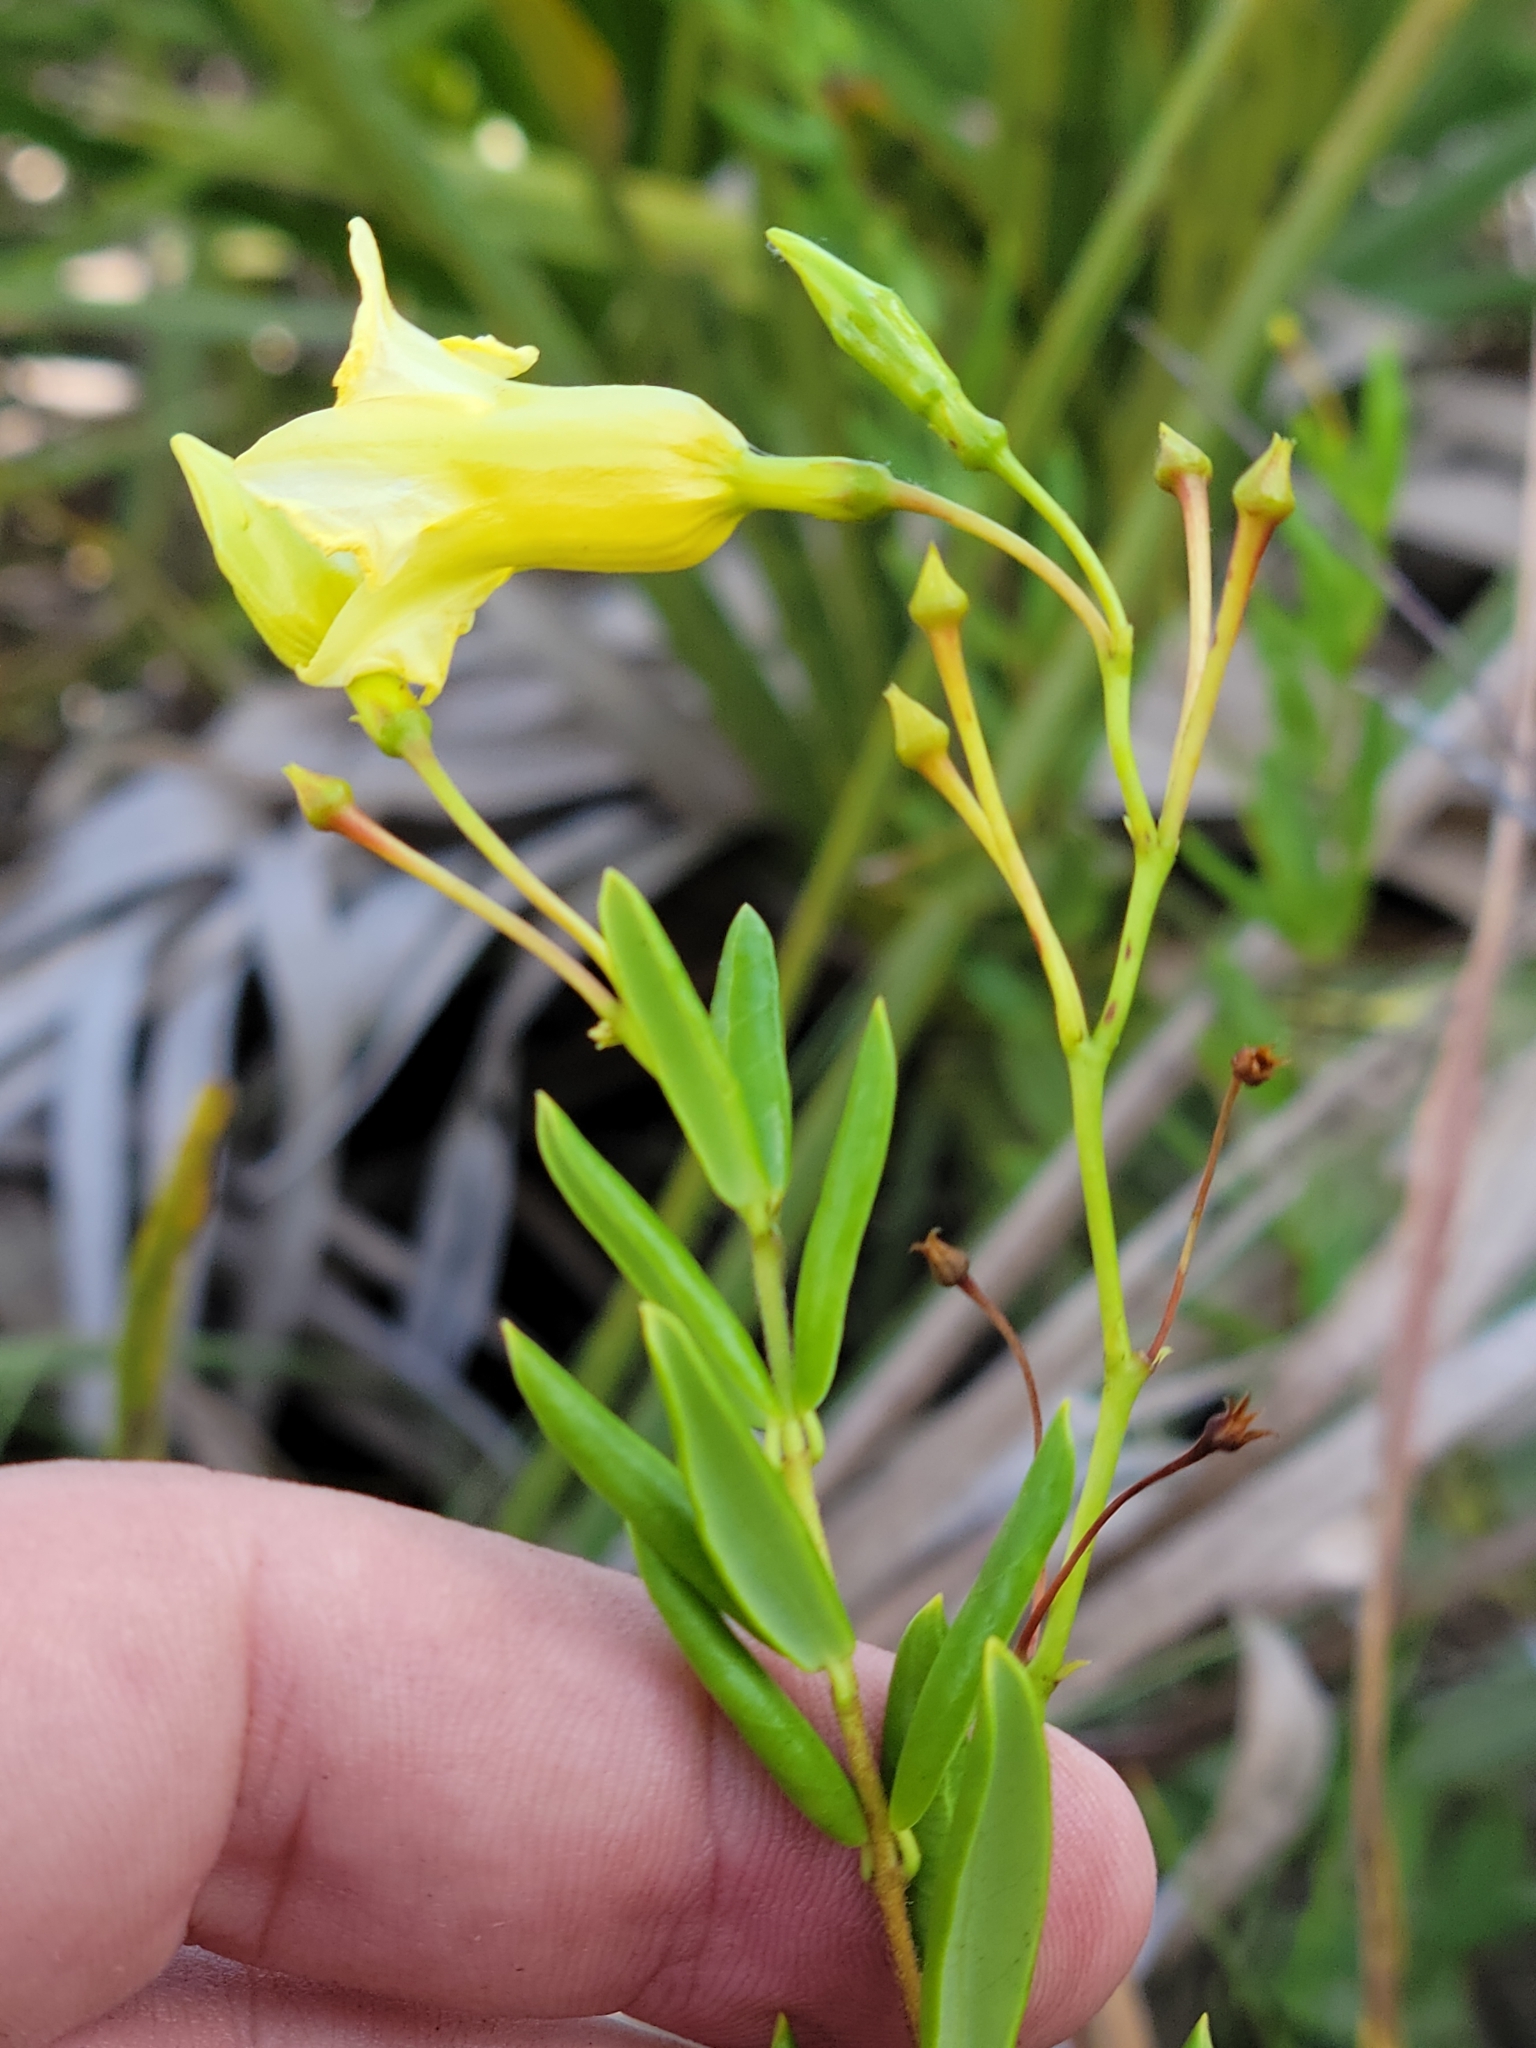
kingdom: Plantae
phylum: Tracheophyta
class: Magnoliopsida
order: Gentianales
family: Apocynaceae
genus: Angadenia
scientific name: Angadenia berteroi
